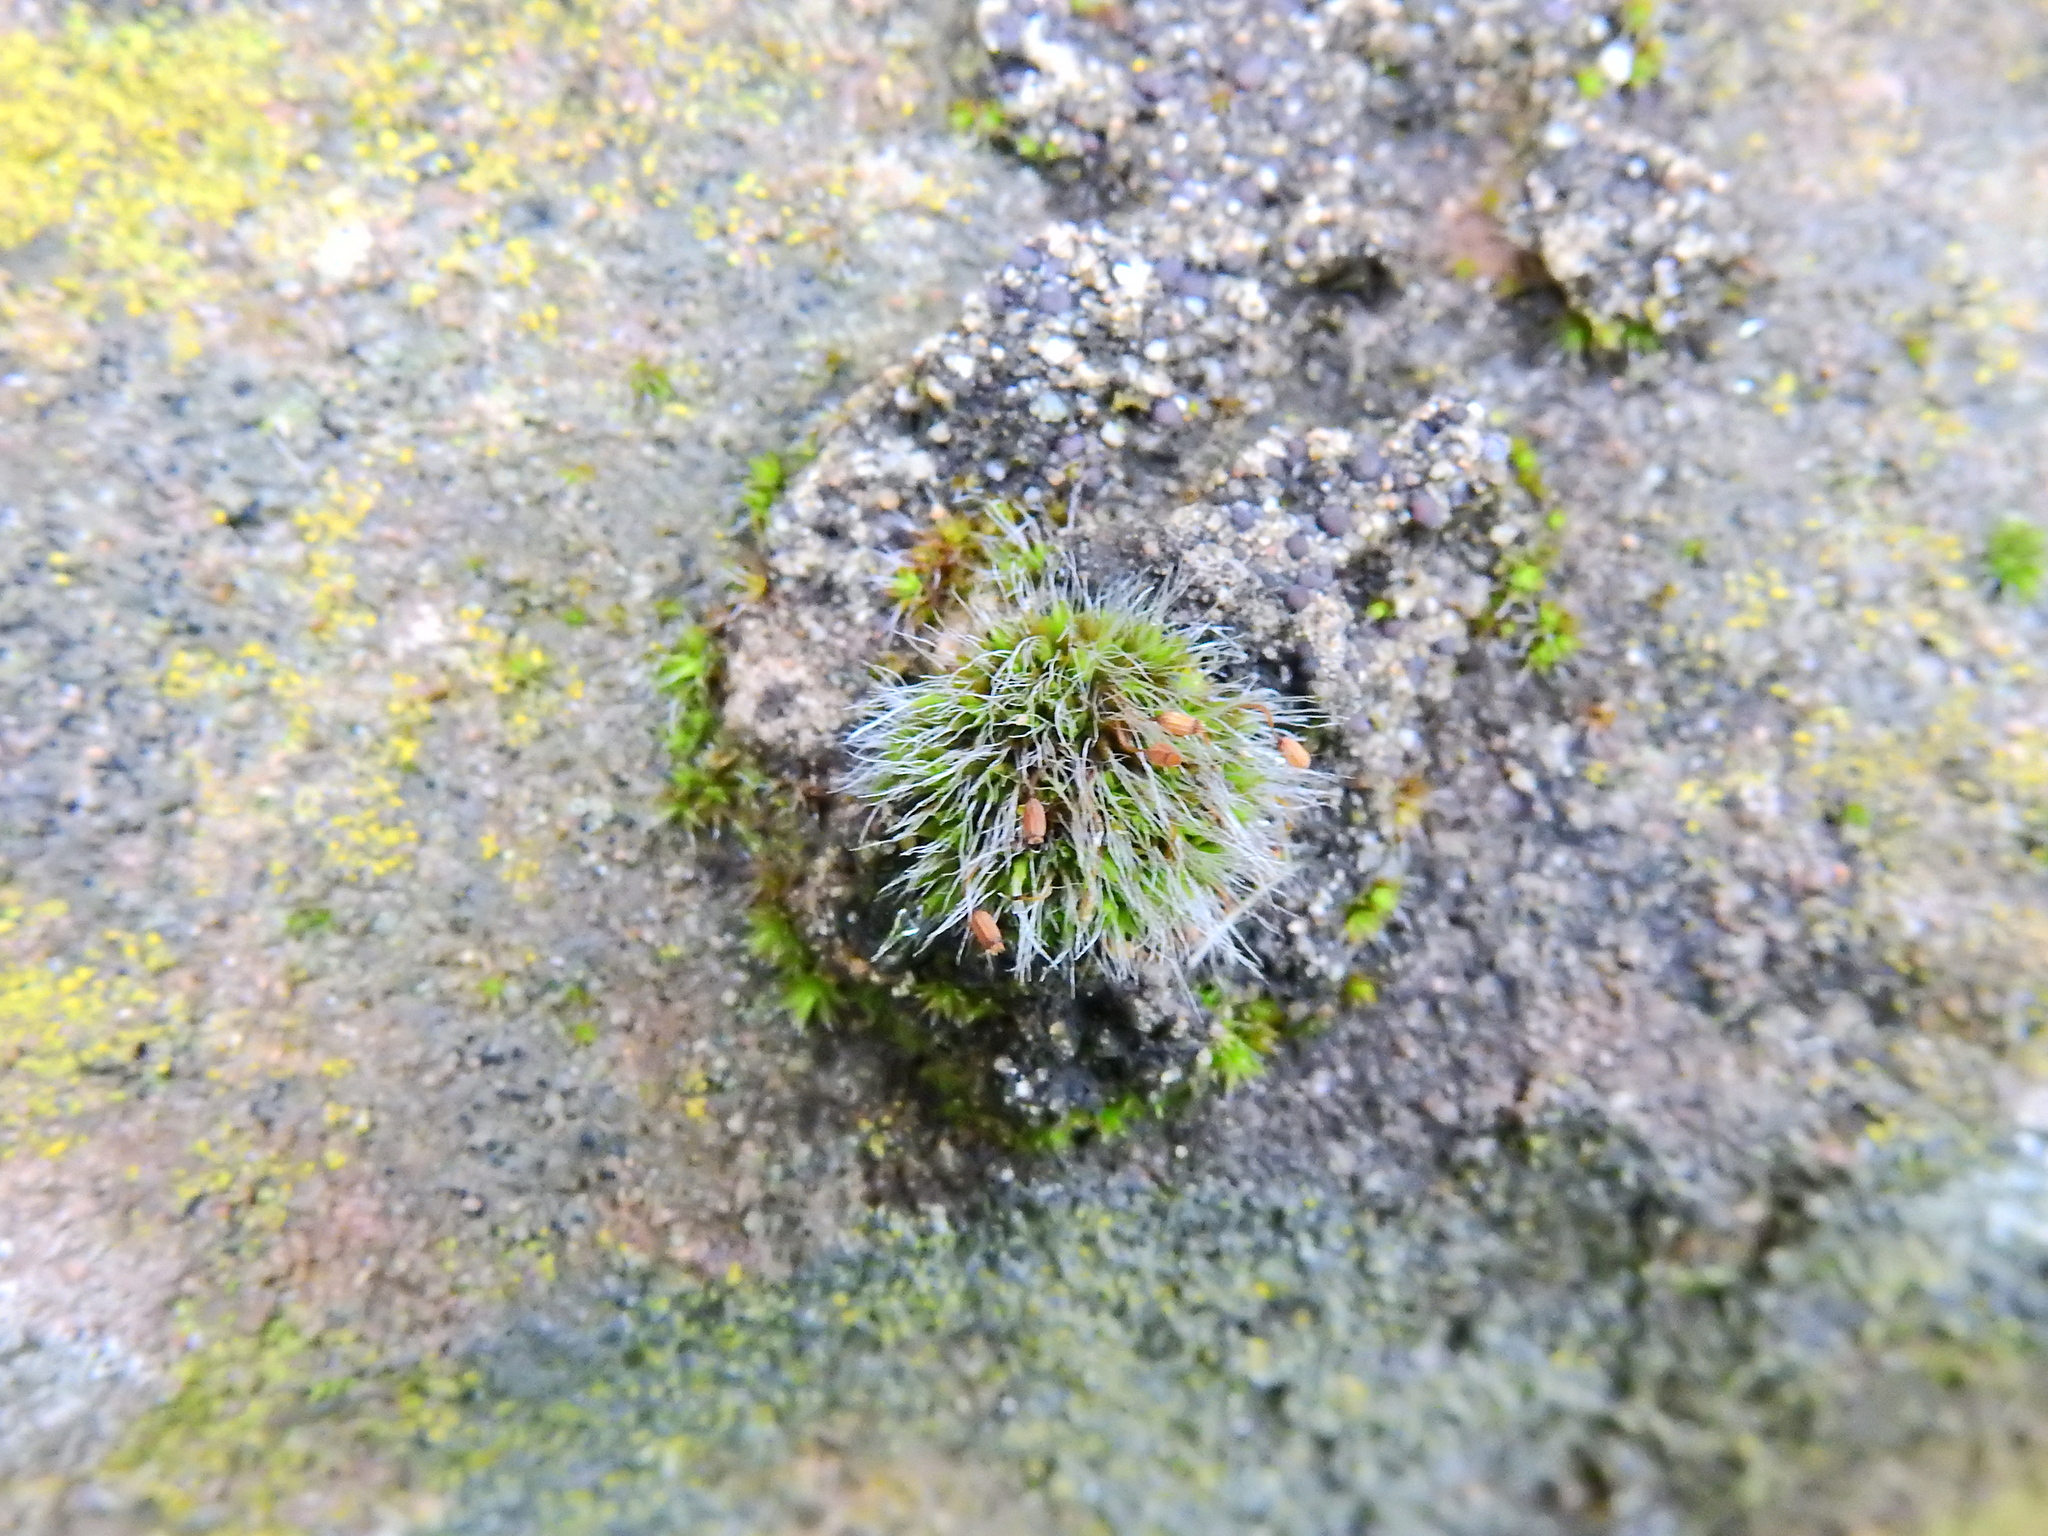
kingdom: Plantae
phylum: Bryophyta
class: Bryopsida
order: Grimmiales
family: Grimmiaceae
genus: Grimmia
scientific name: Grimmia pulvinata
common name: Grey-cushioned grimmia
